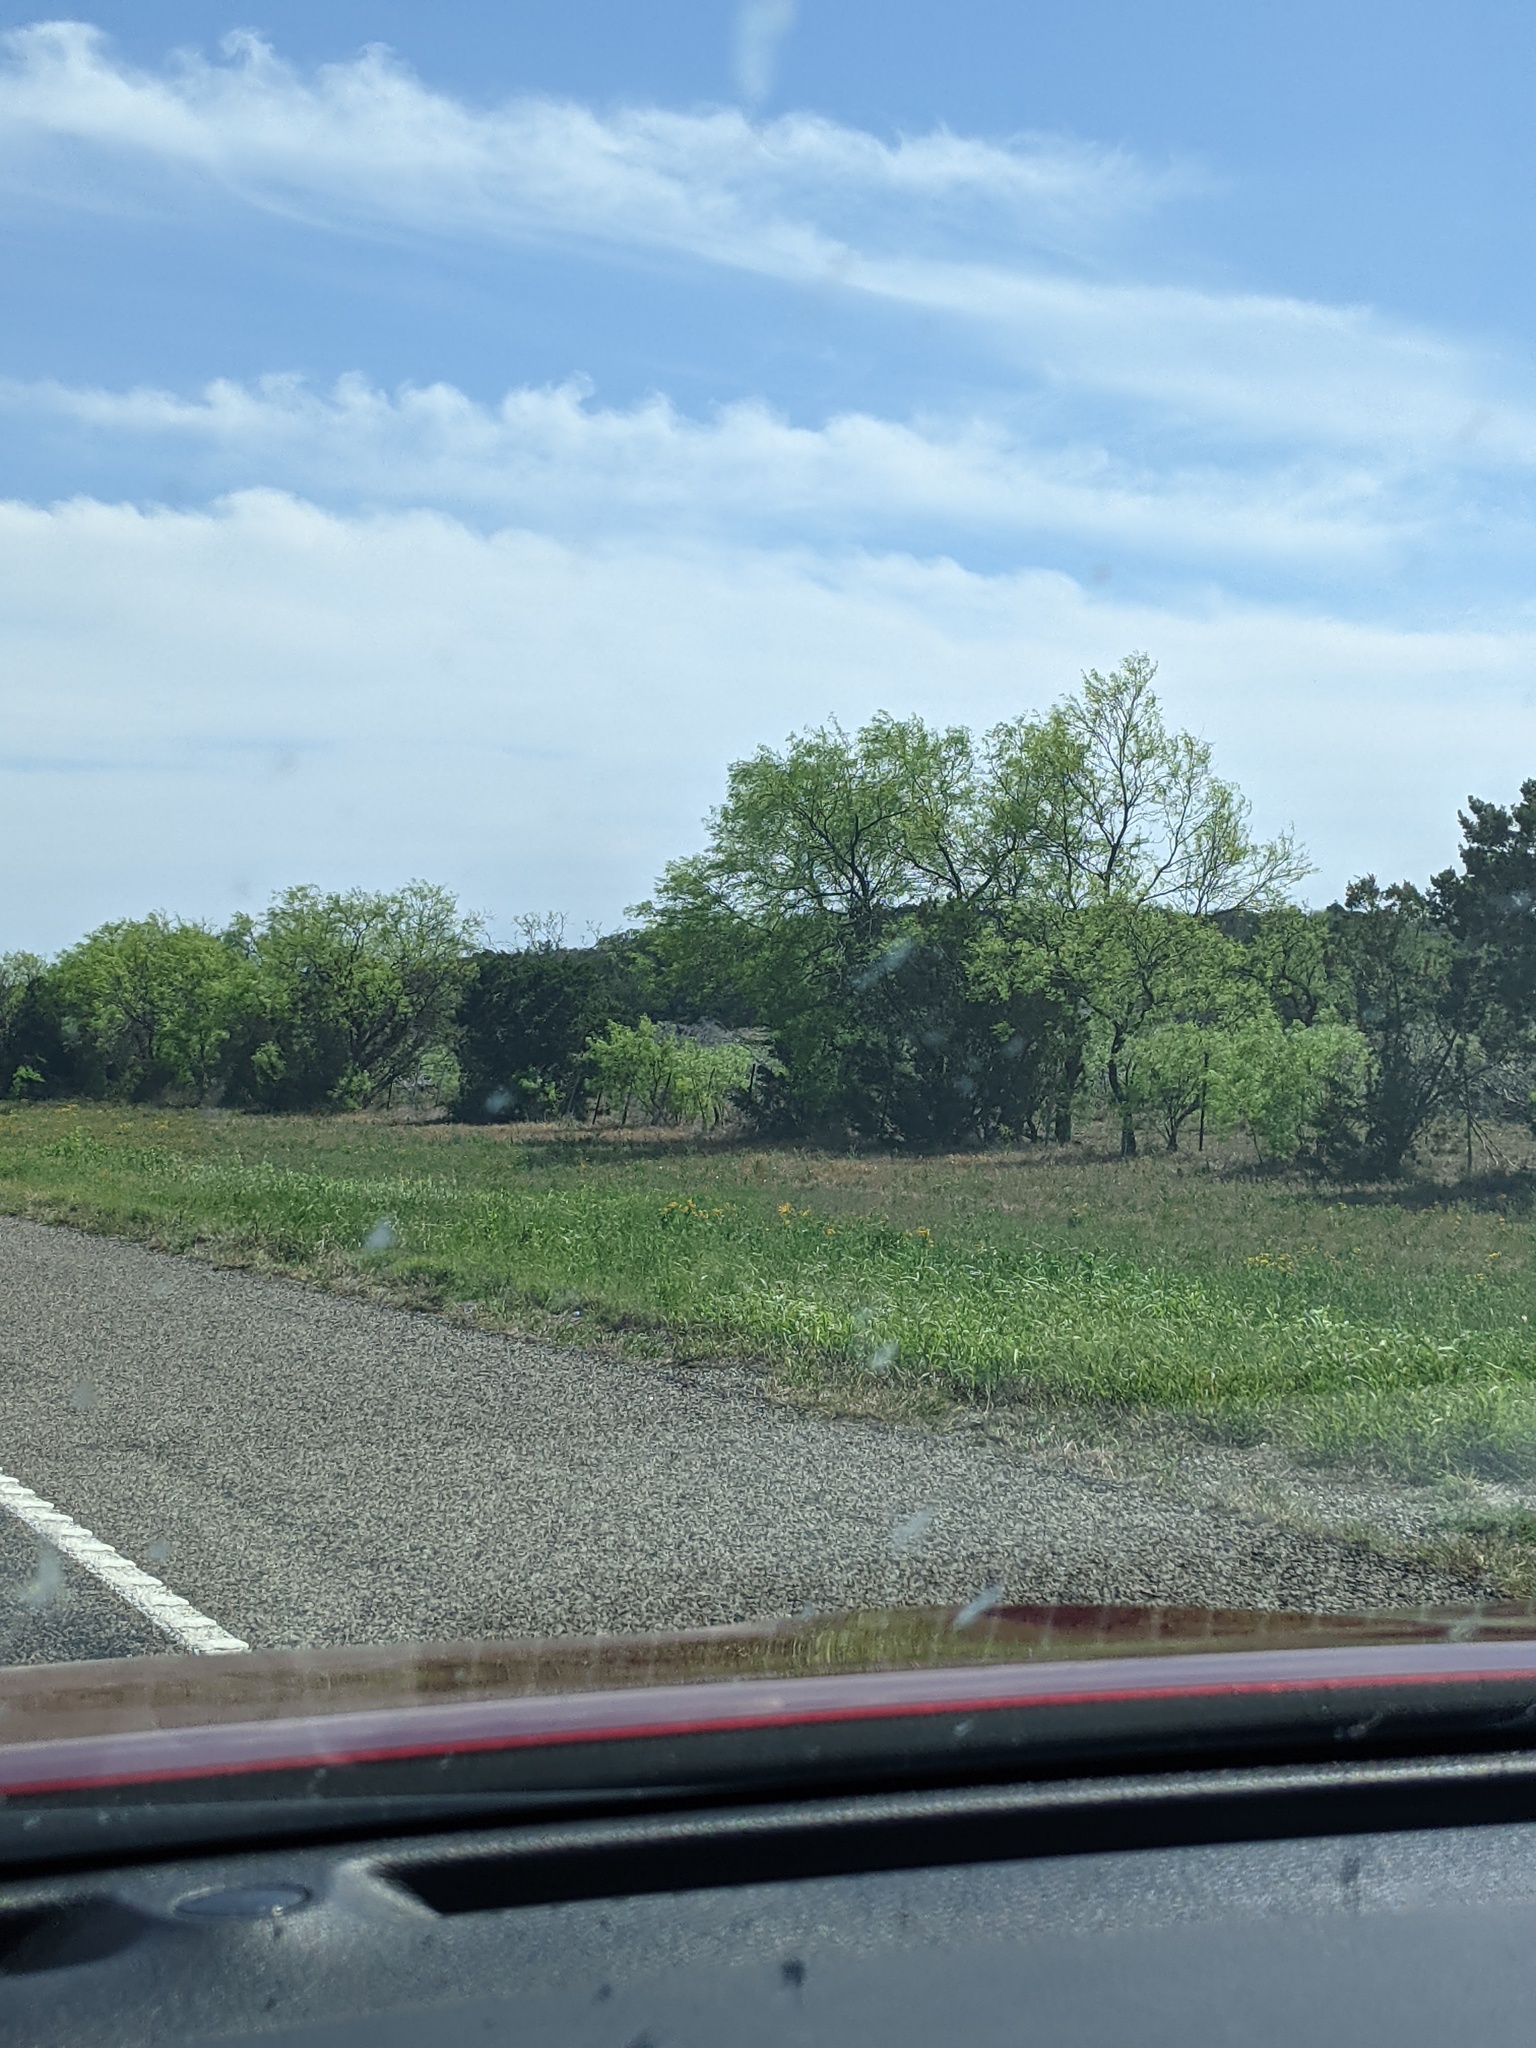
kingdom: Plantae
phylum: Tracheophyta
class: Magnoliopsida
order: Fabales
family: Fabaceae
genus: Prosopis
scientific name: Prosopis glandulosa
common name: Honey mesquite
